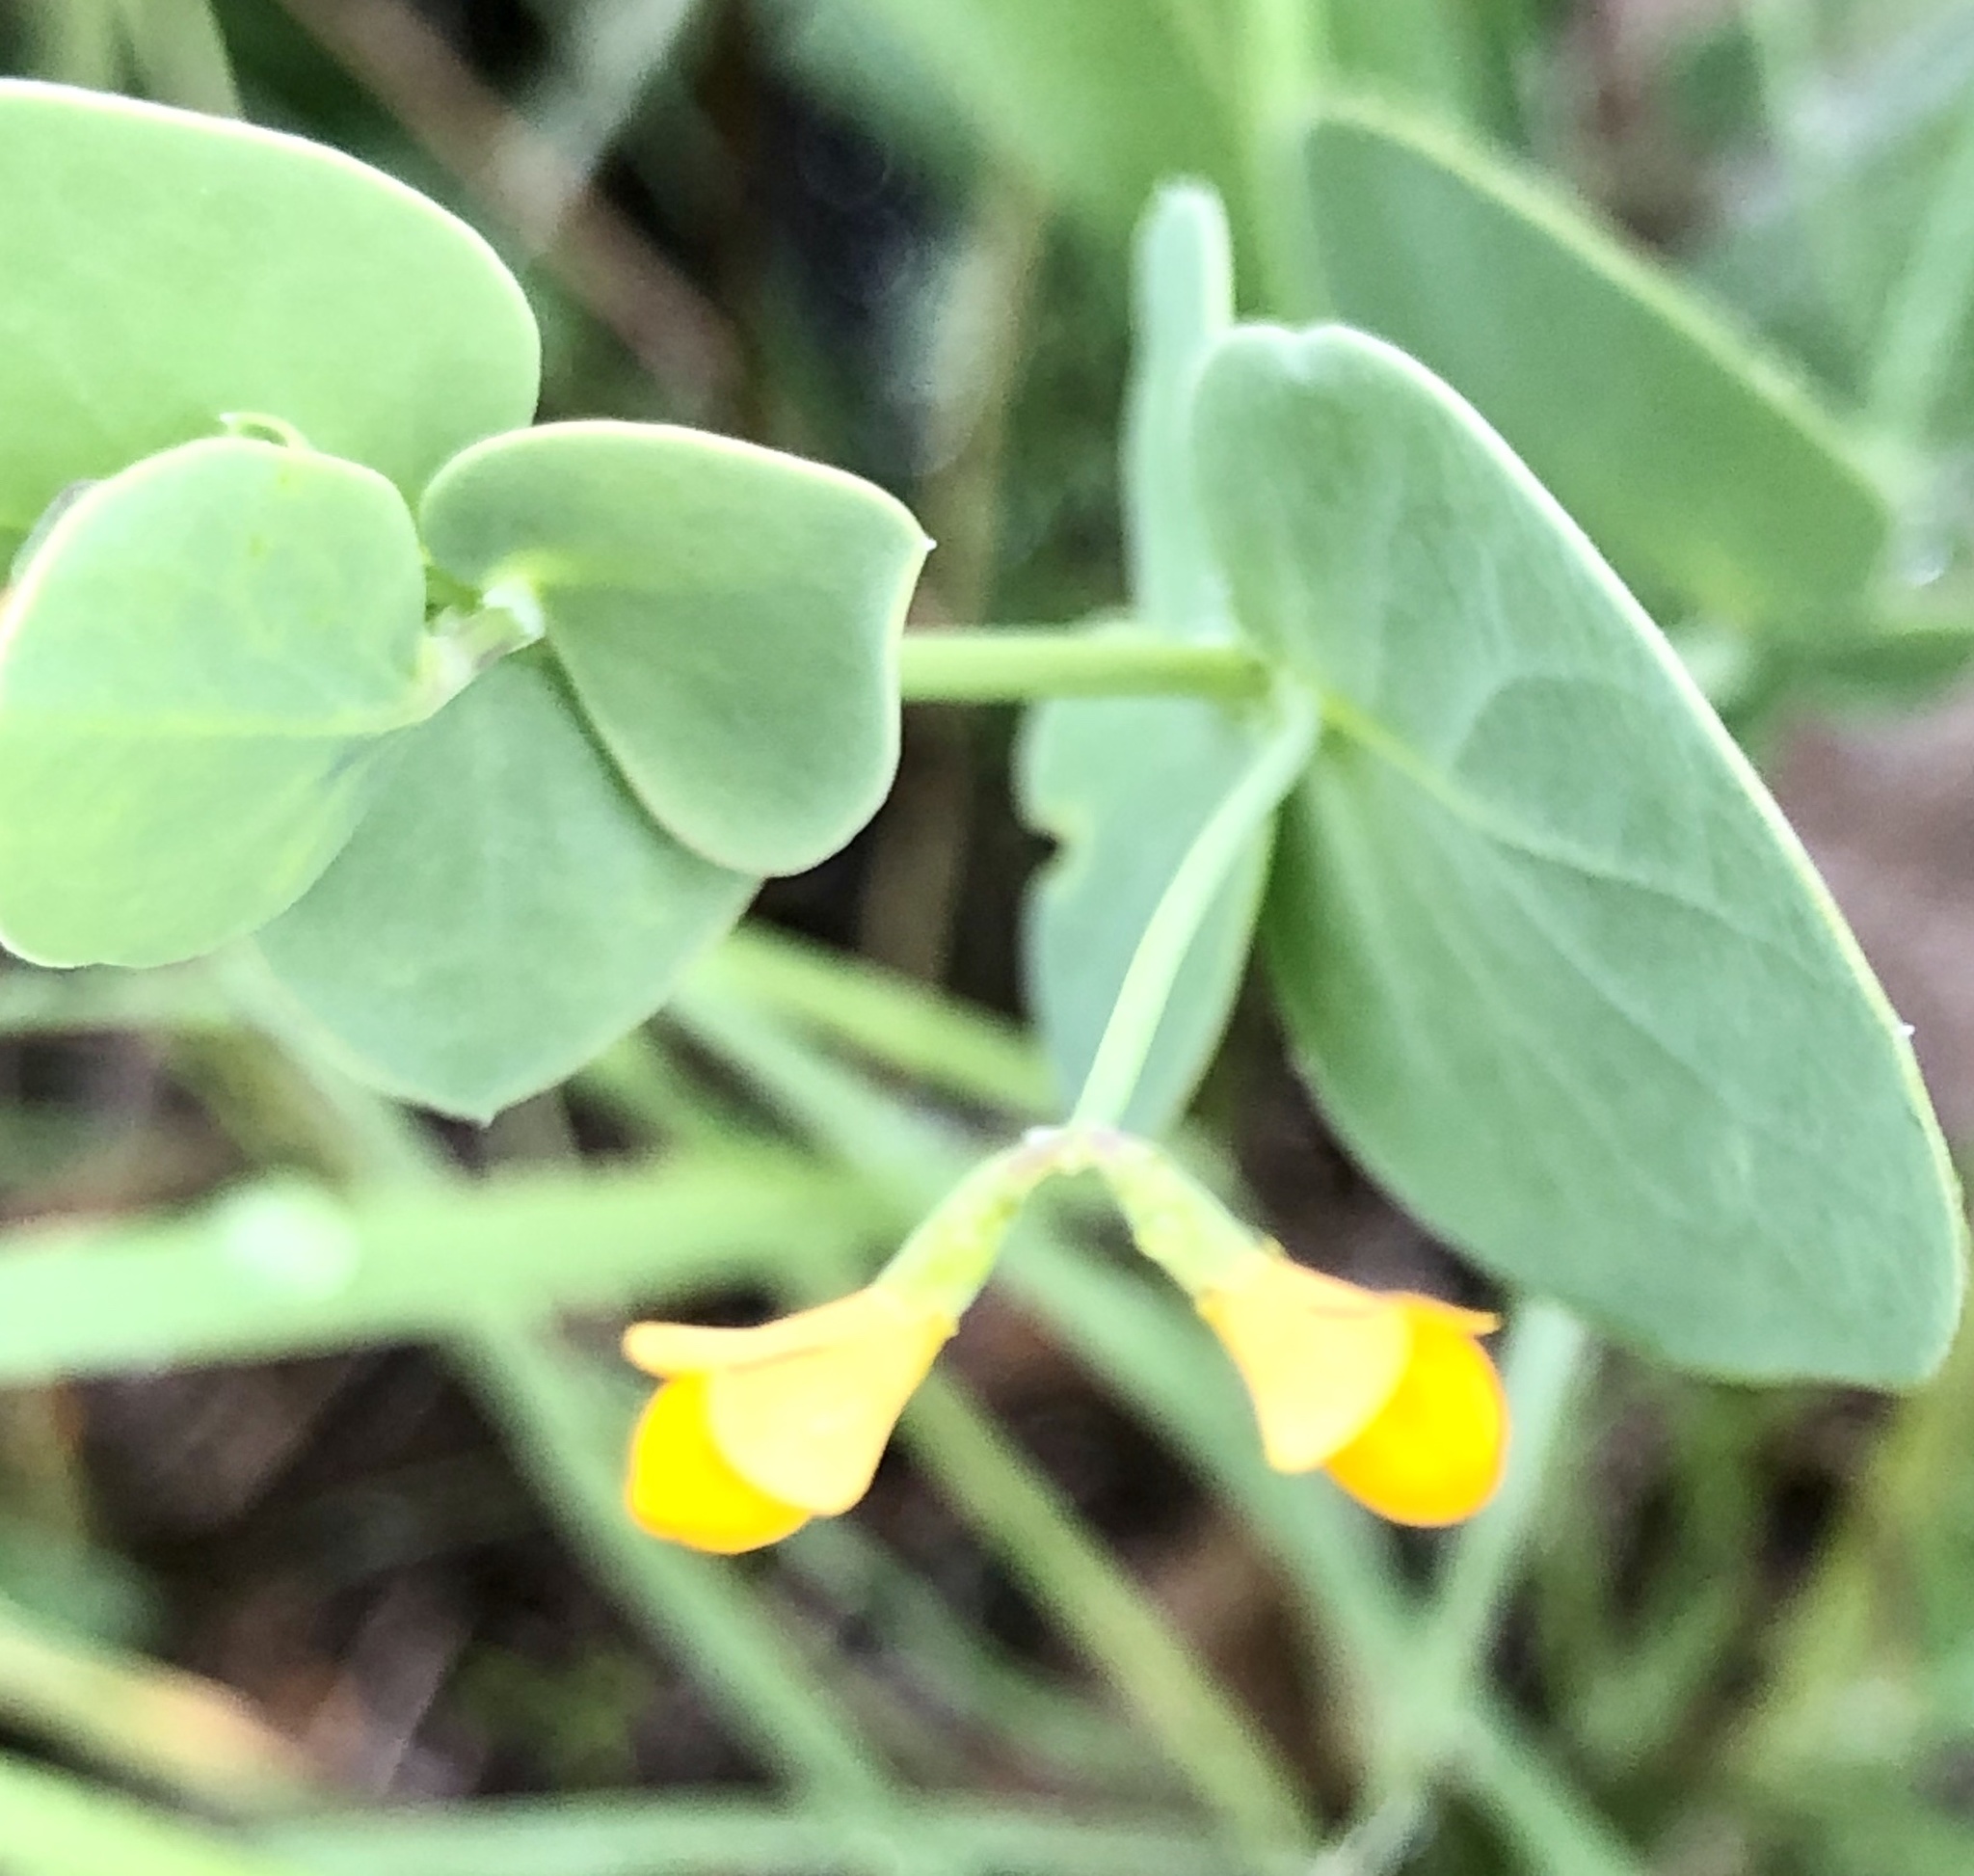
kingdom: Plantae
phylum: Tracheophyta
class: Magnoliopsida
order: Fabales
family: Fabaceae
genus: Coronilla
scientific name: Coronilla scorpioides
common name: Annual scorpion-vetch
